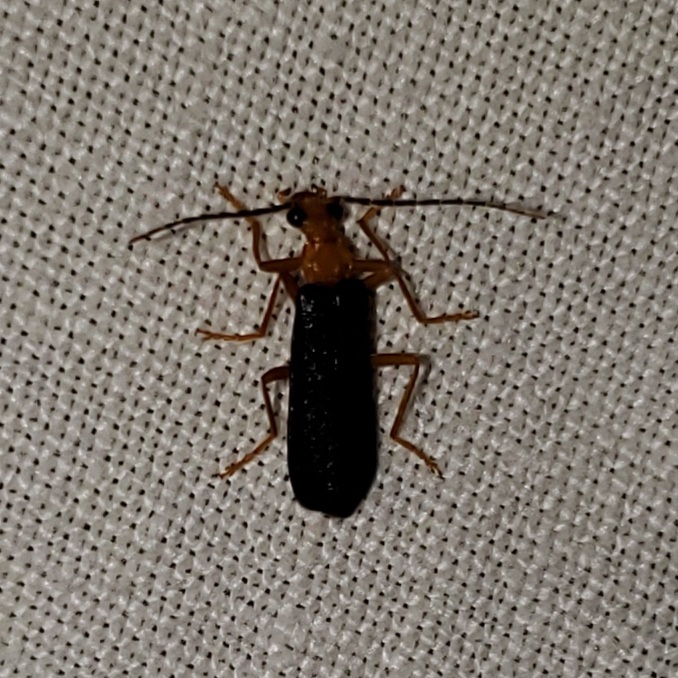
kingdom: Animalia
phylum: Arthropoda
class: Insecta
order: Coleoptera
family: Cantharidae
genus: Podabrus
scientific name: Podabrus fayi
